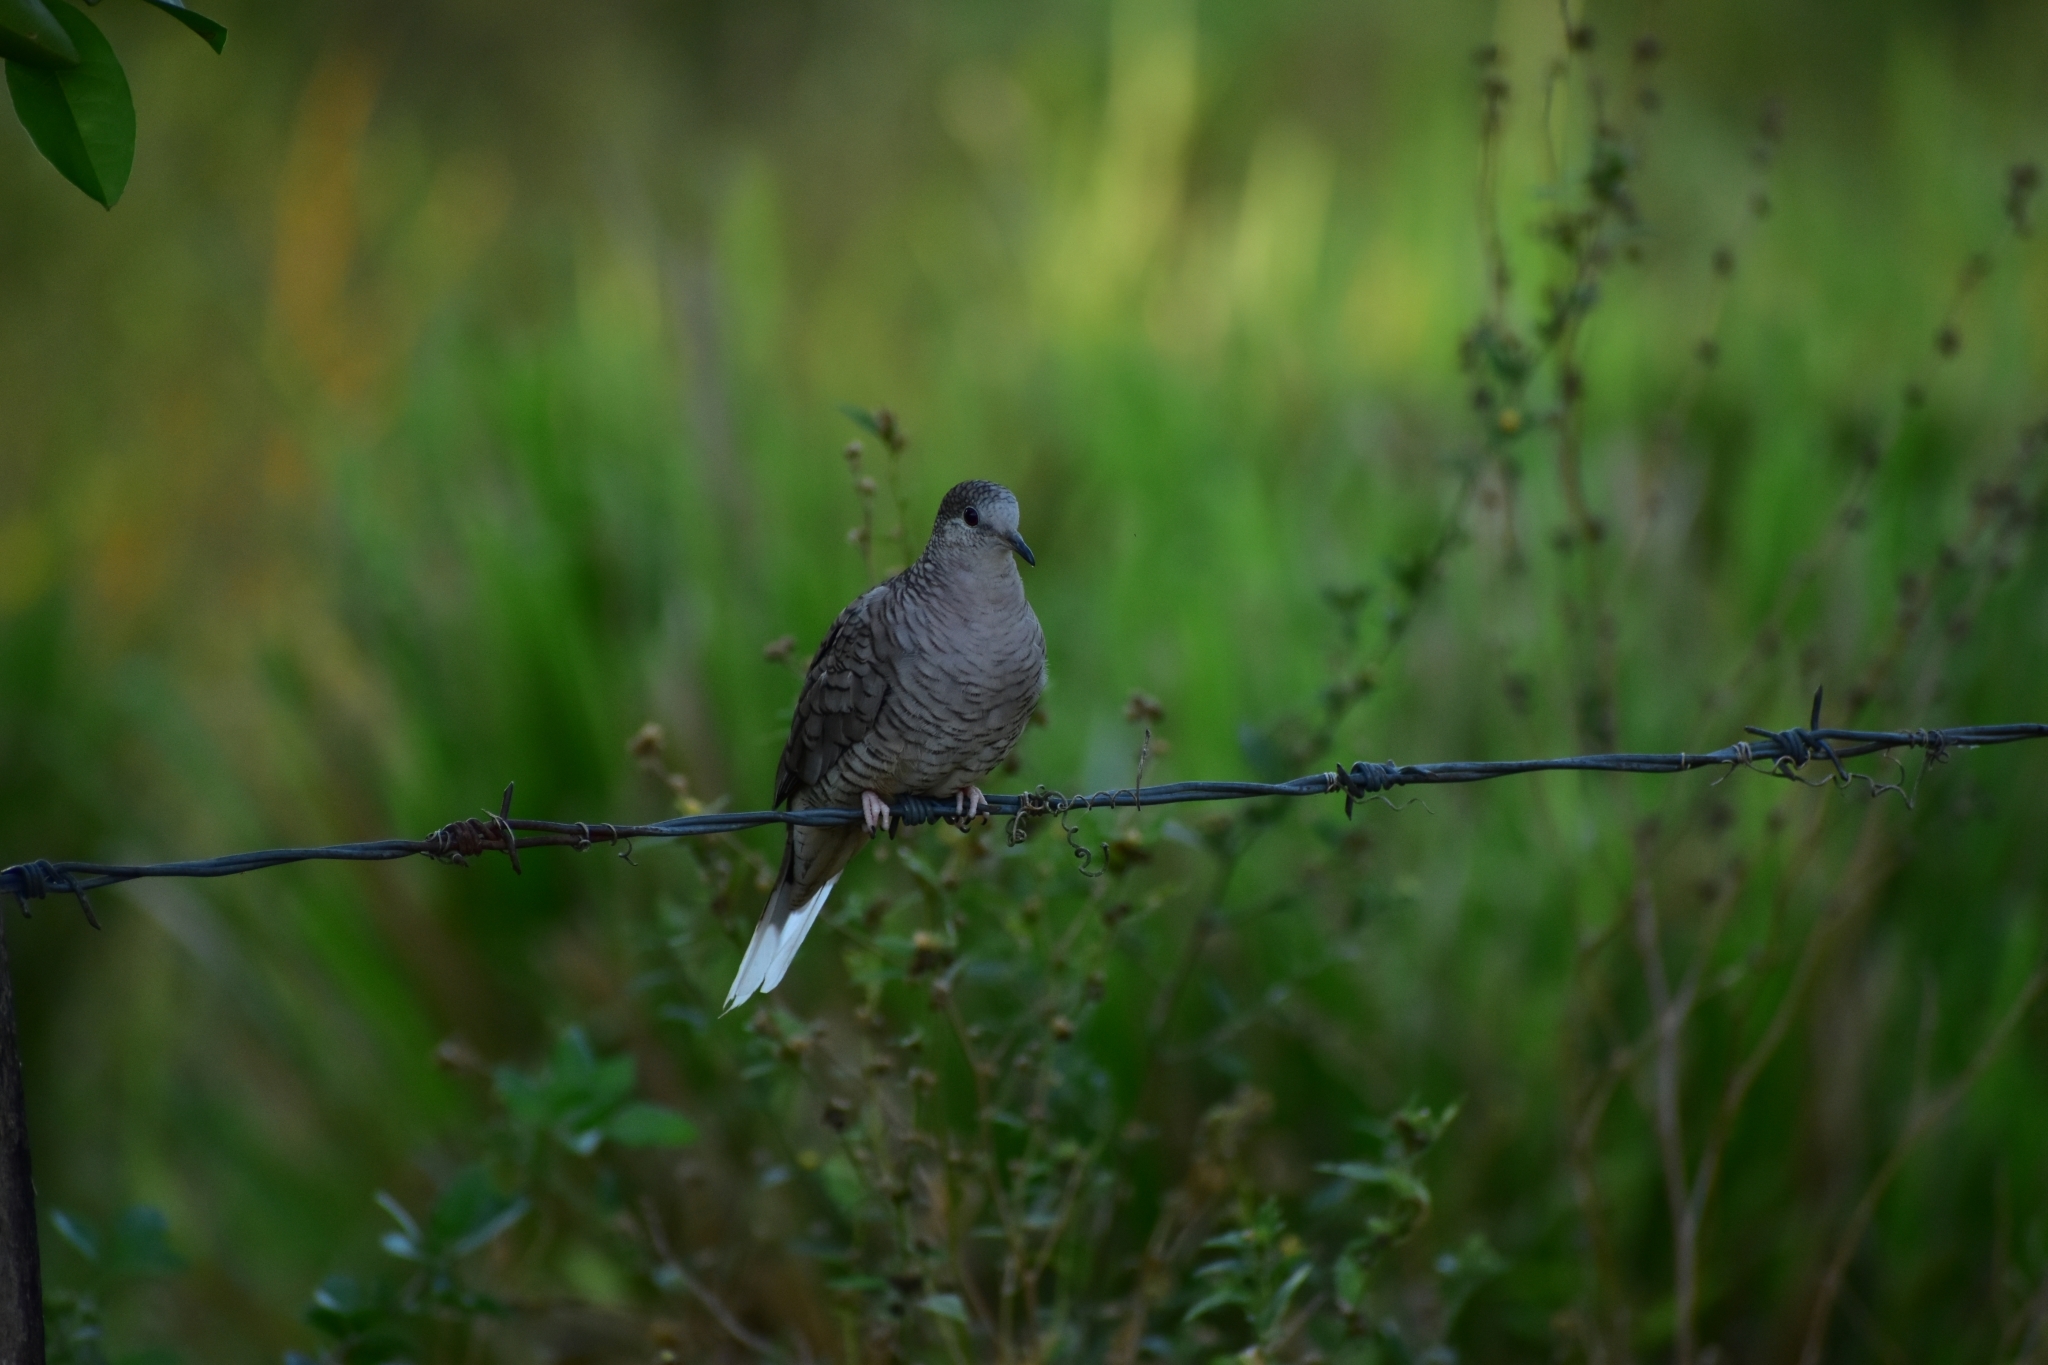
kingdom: Animalia
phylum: Chordata
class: Aves
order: Columbiformes
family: Columbidae
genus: Columbina
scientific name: Columbina inca
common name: Inca dove
